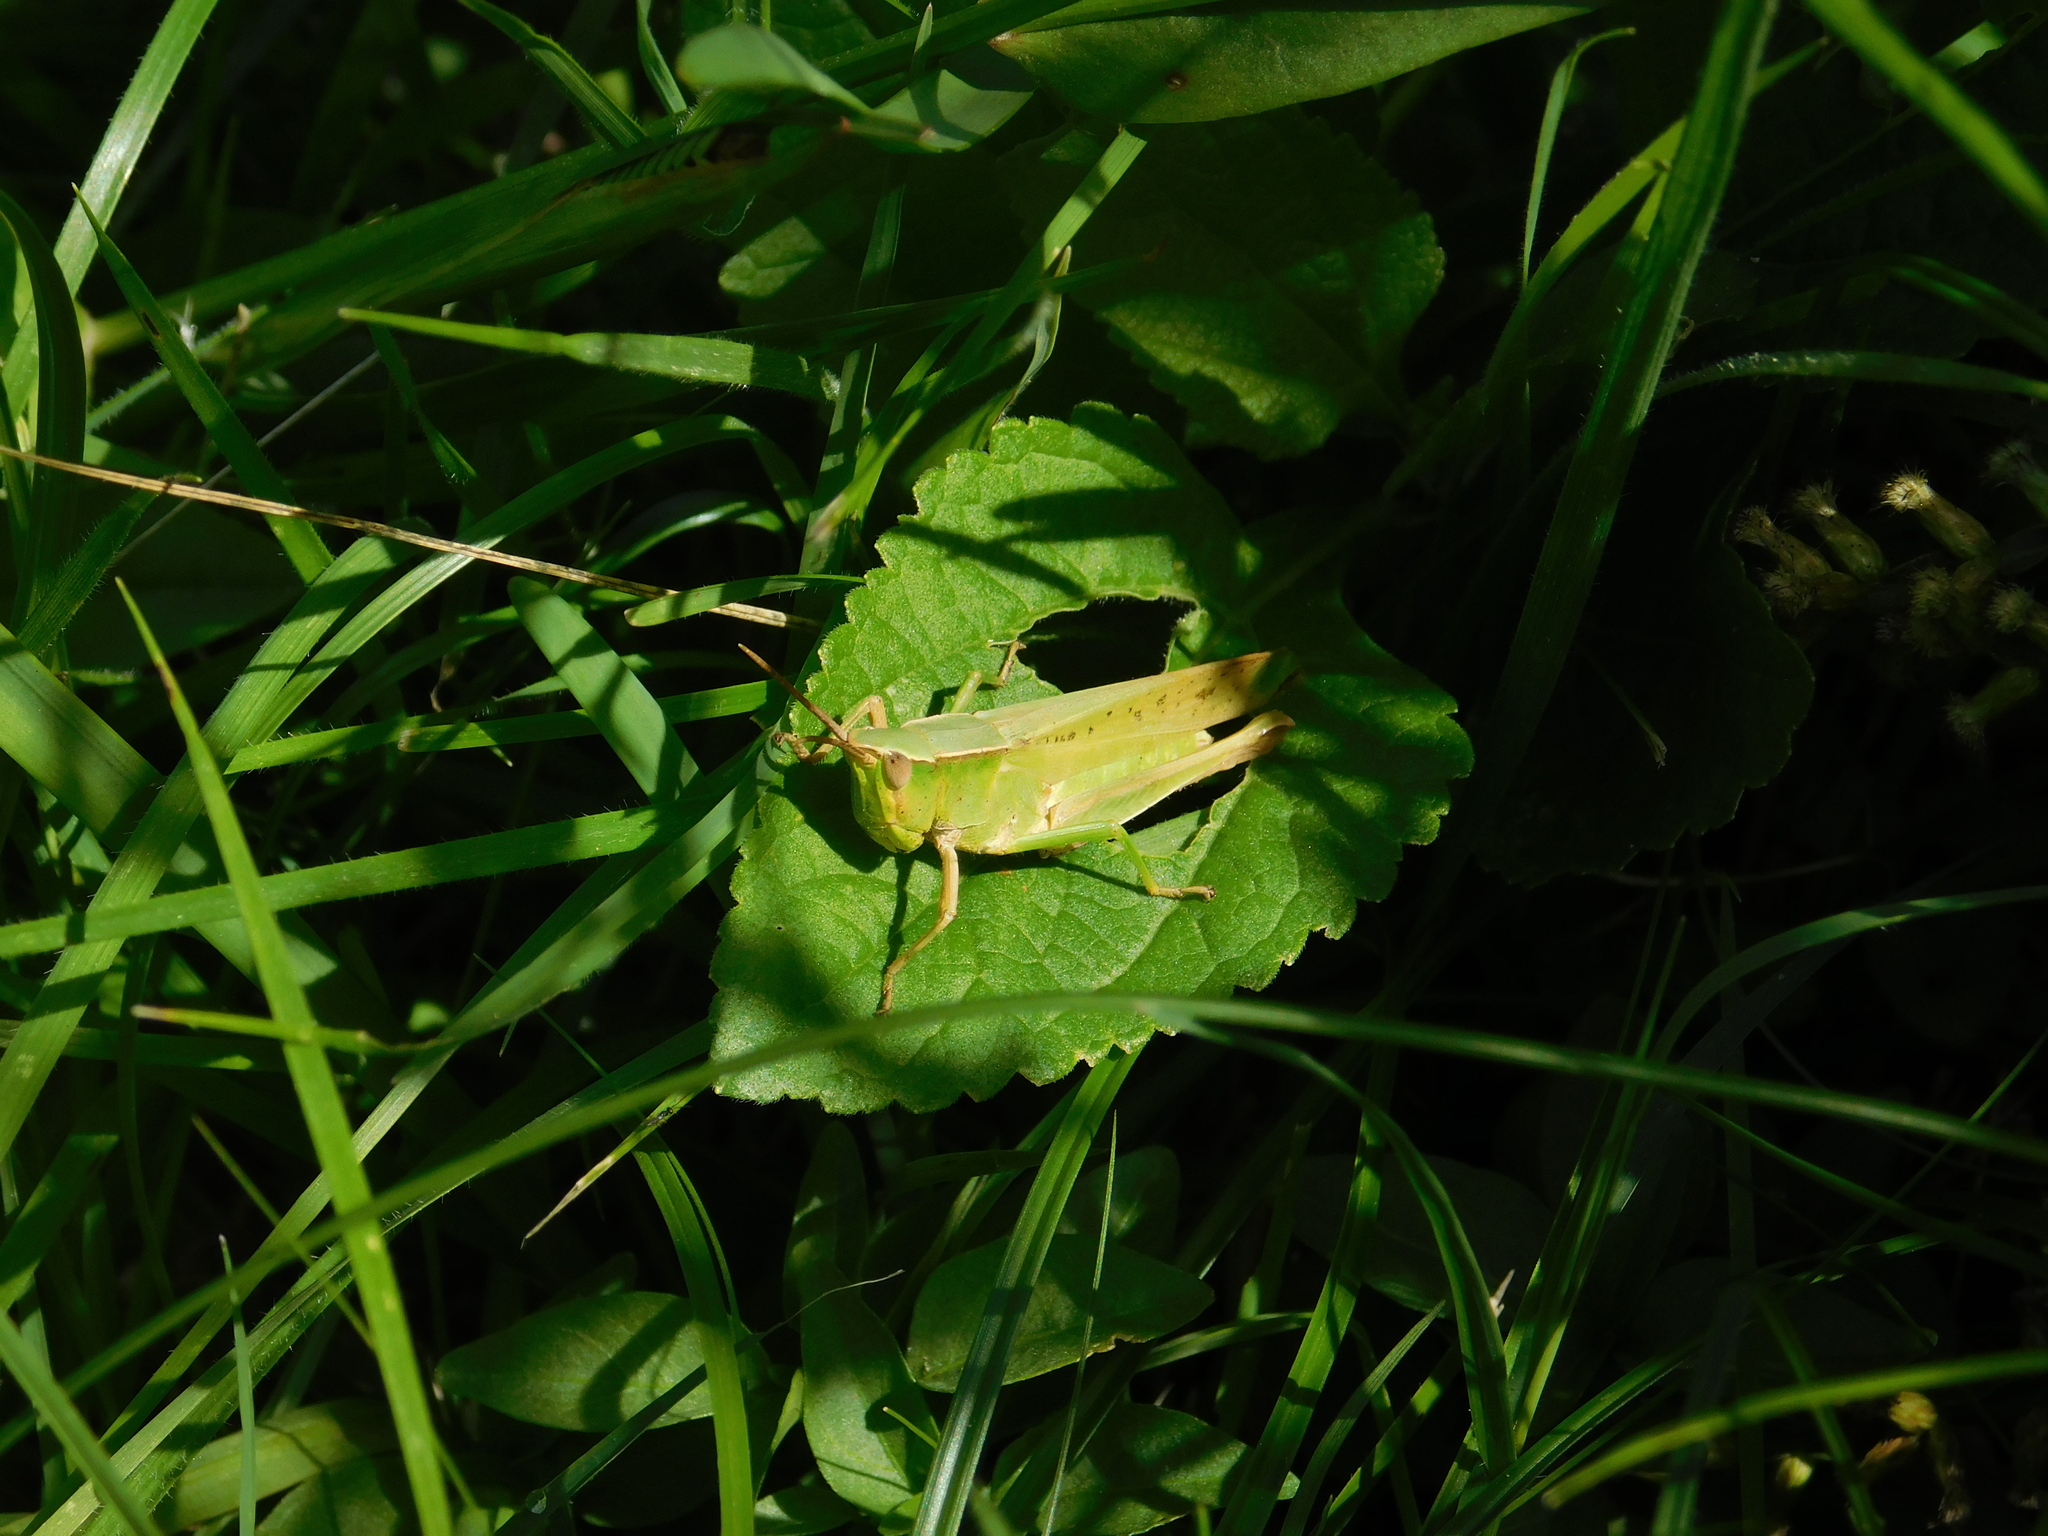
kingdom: Animalia
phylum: Arthropoda
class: Insecta
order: Orthoptera
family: Acrididae
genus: Metaleptea
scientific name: Metaleptea adspersa
